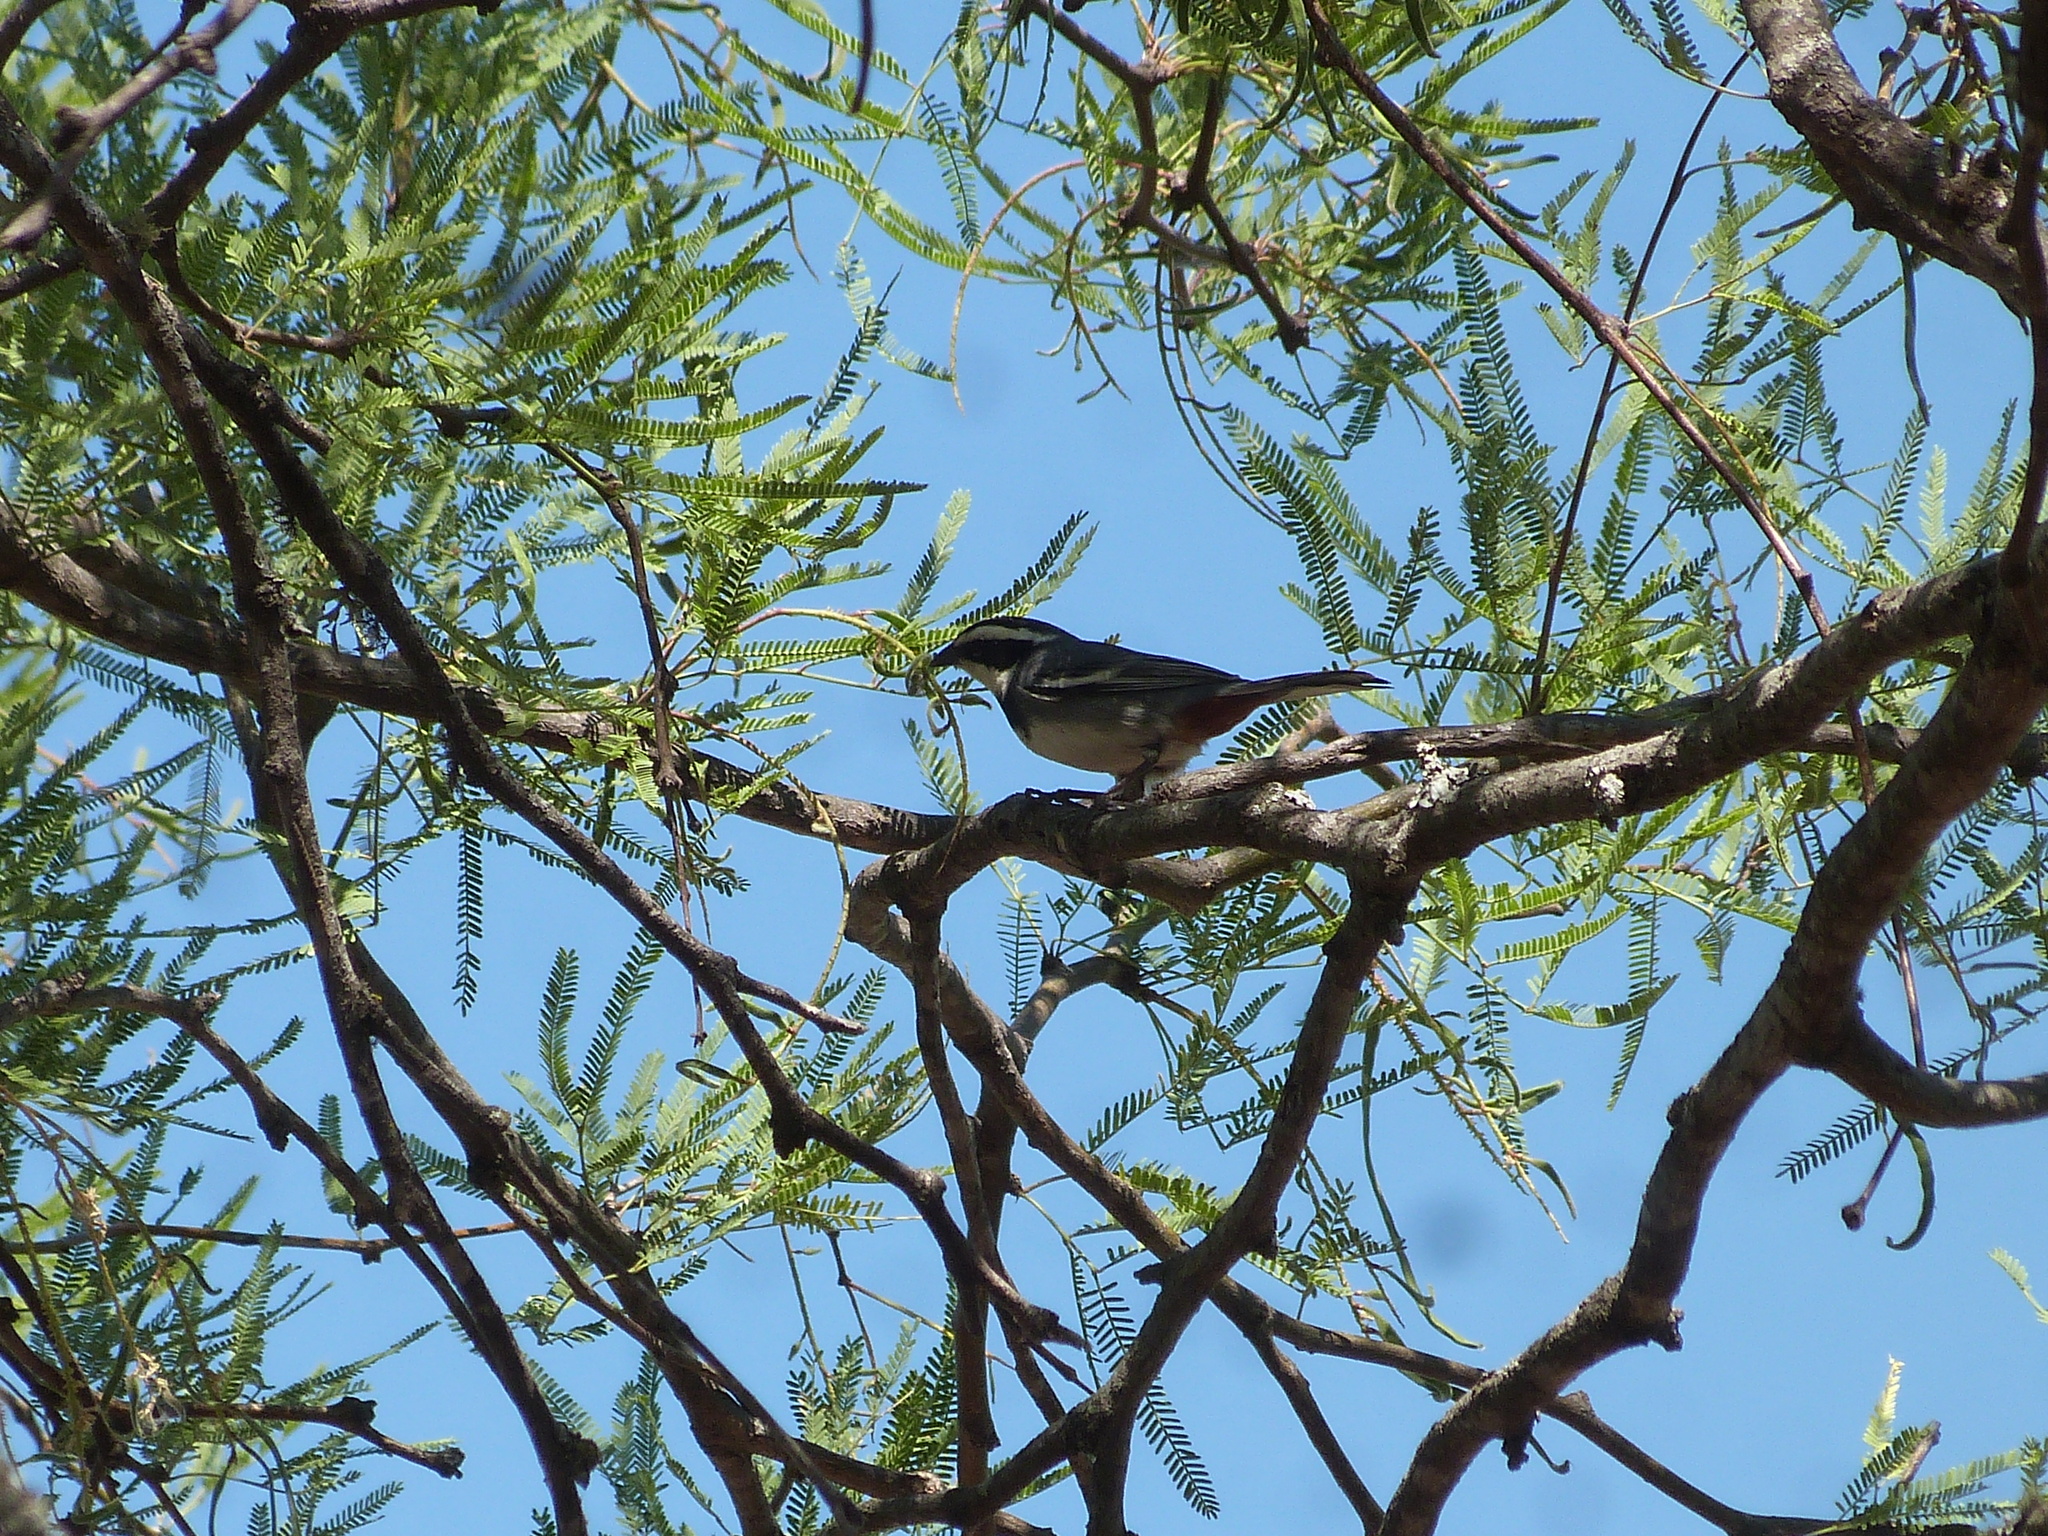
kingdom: Animalia
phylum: Chordata
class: Aves
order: Passeriformes
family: Thraupidae
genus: Microspingus
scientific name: Microspingus torquatus
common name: Ringed warbling-finch
